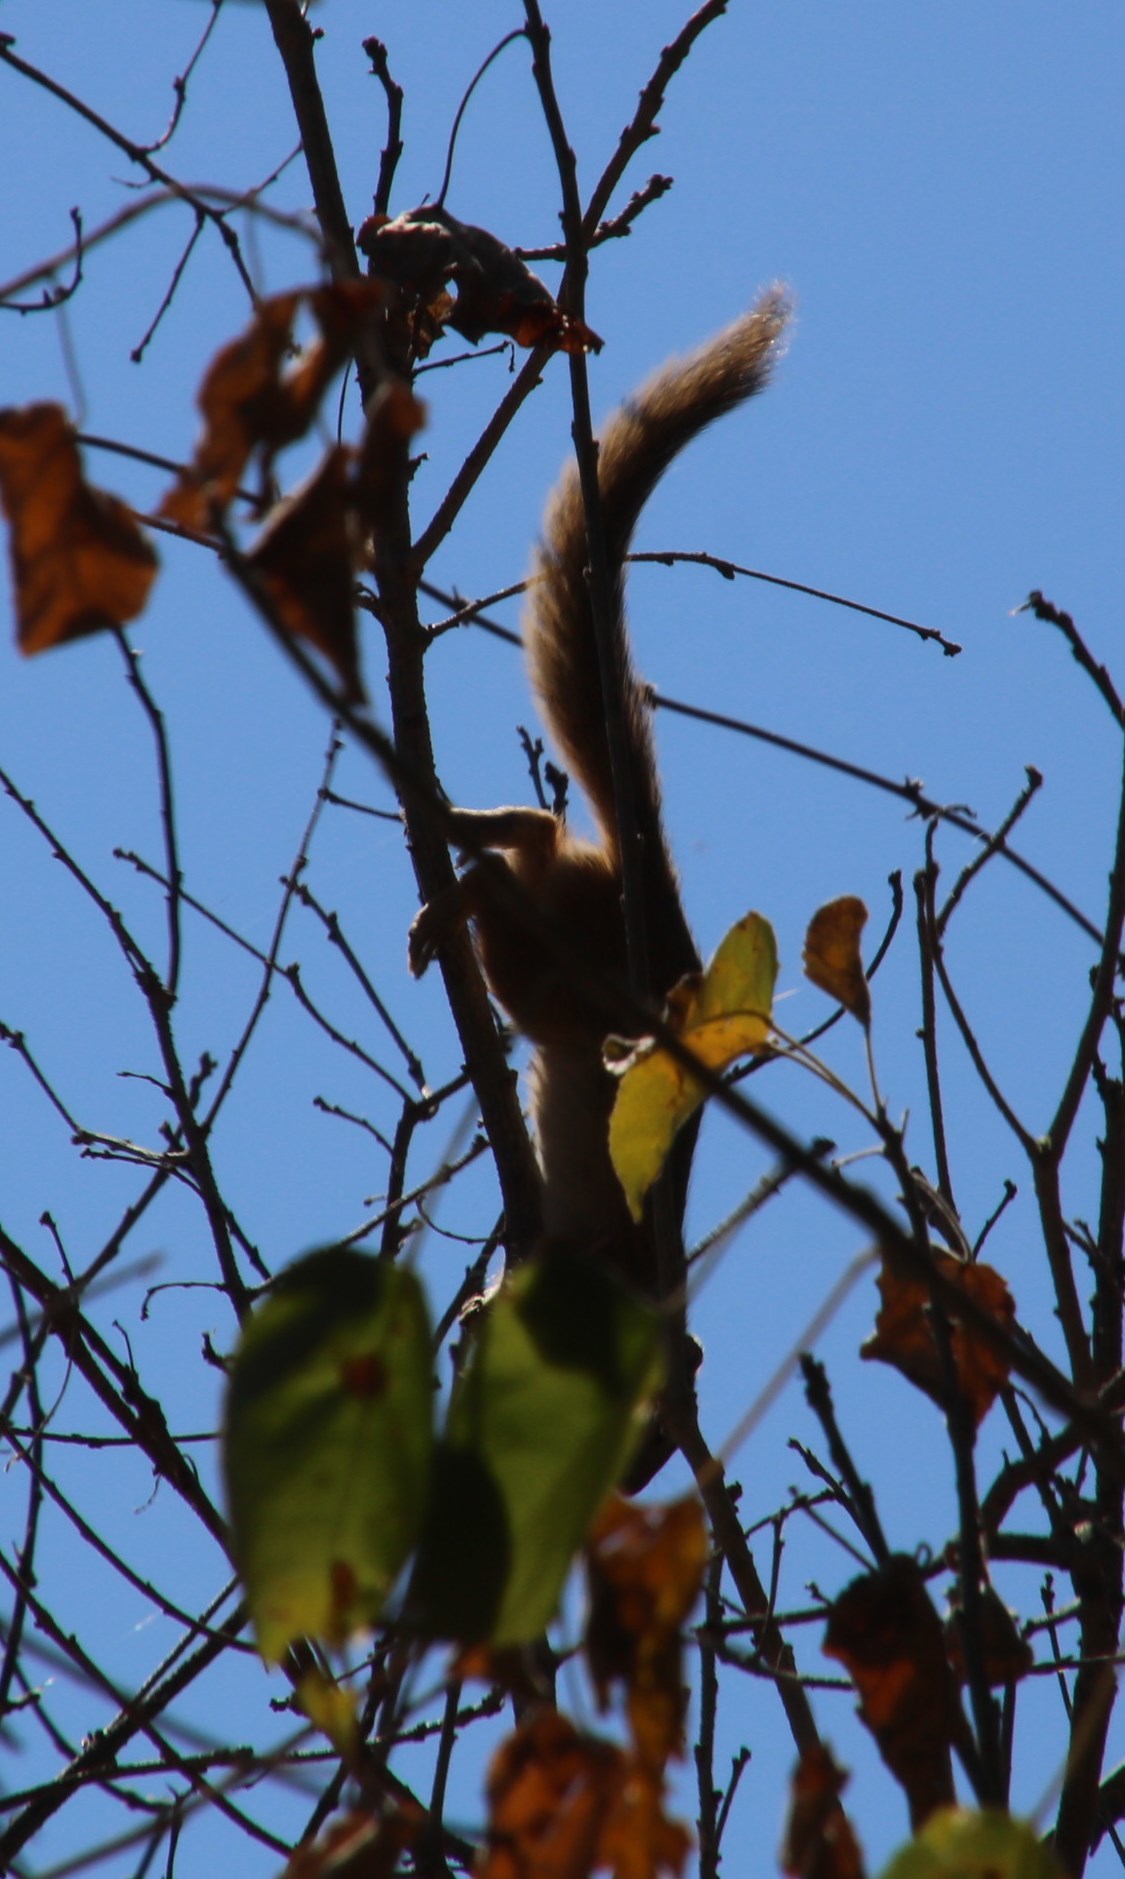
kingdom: Animalia
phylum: Chordata
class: Mammalia
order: Rodentia
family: Sciuridae
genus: Paraxerus
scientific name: Paraxerus cepapi
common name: Smith's bush squirrel
